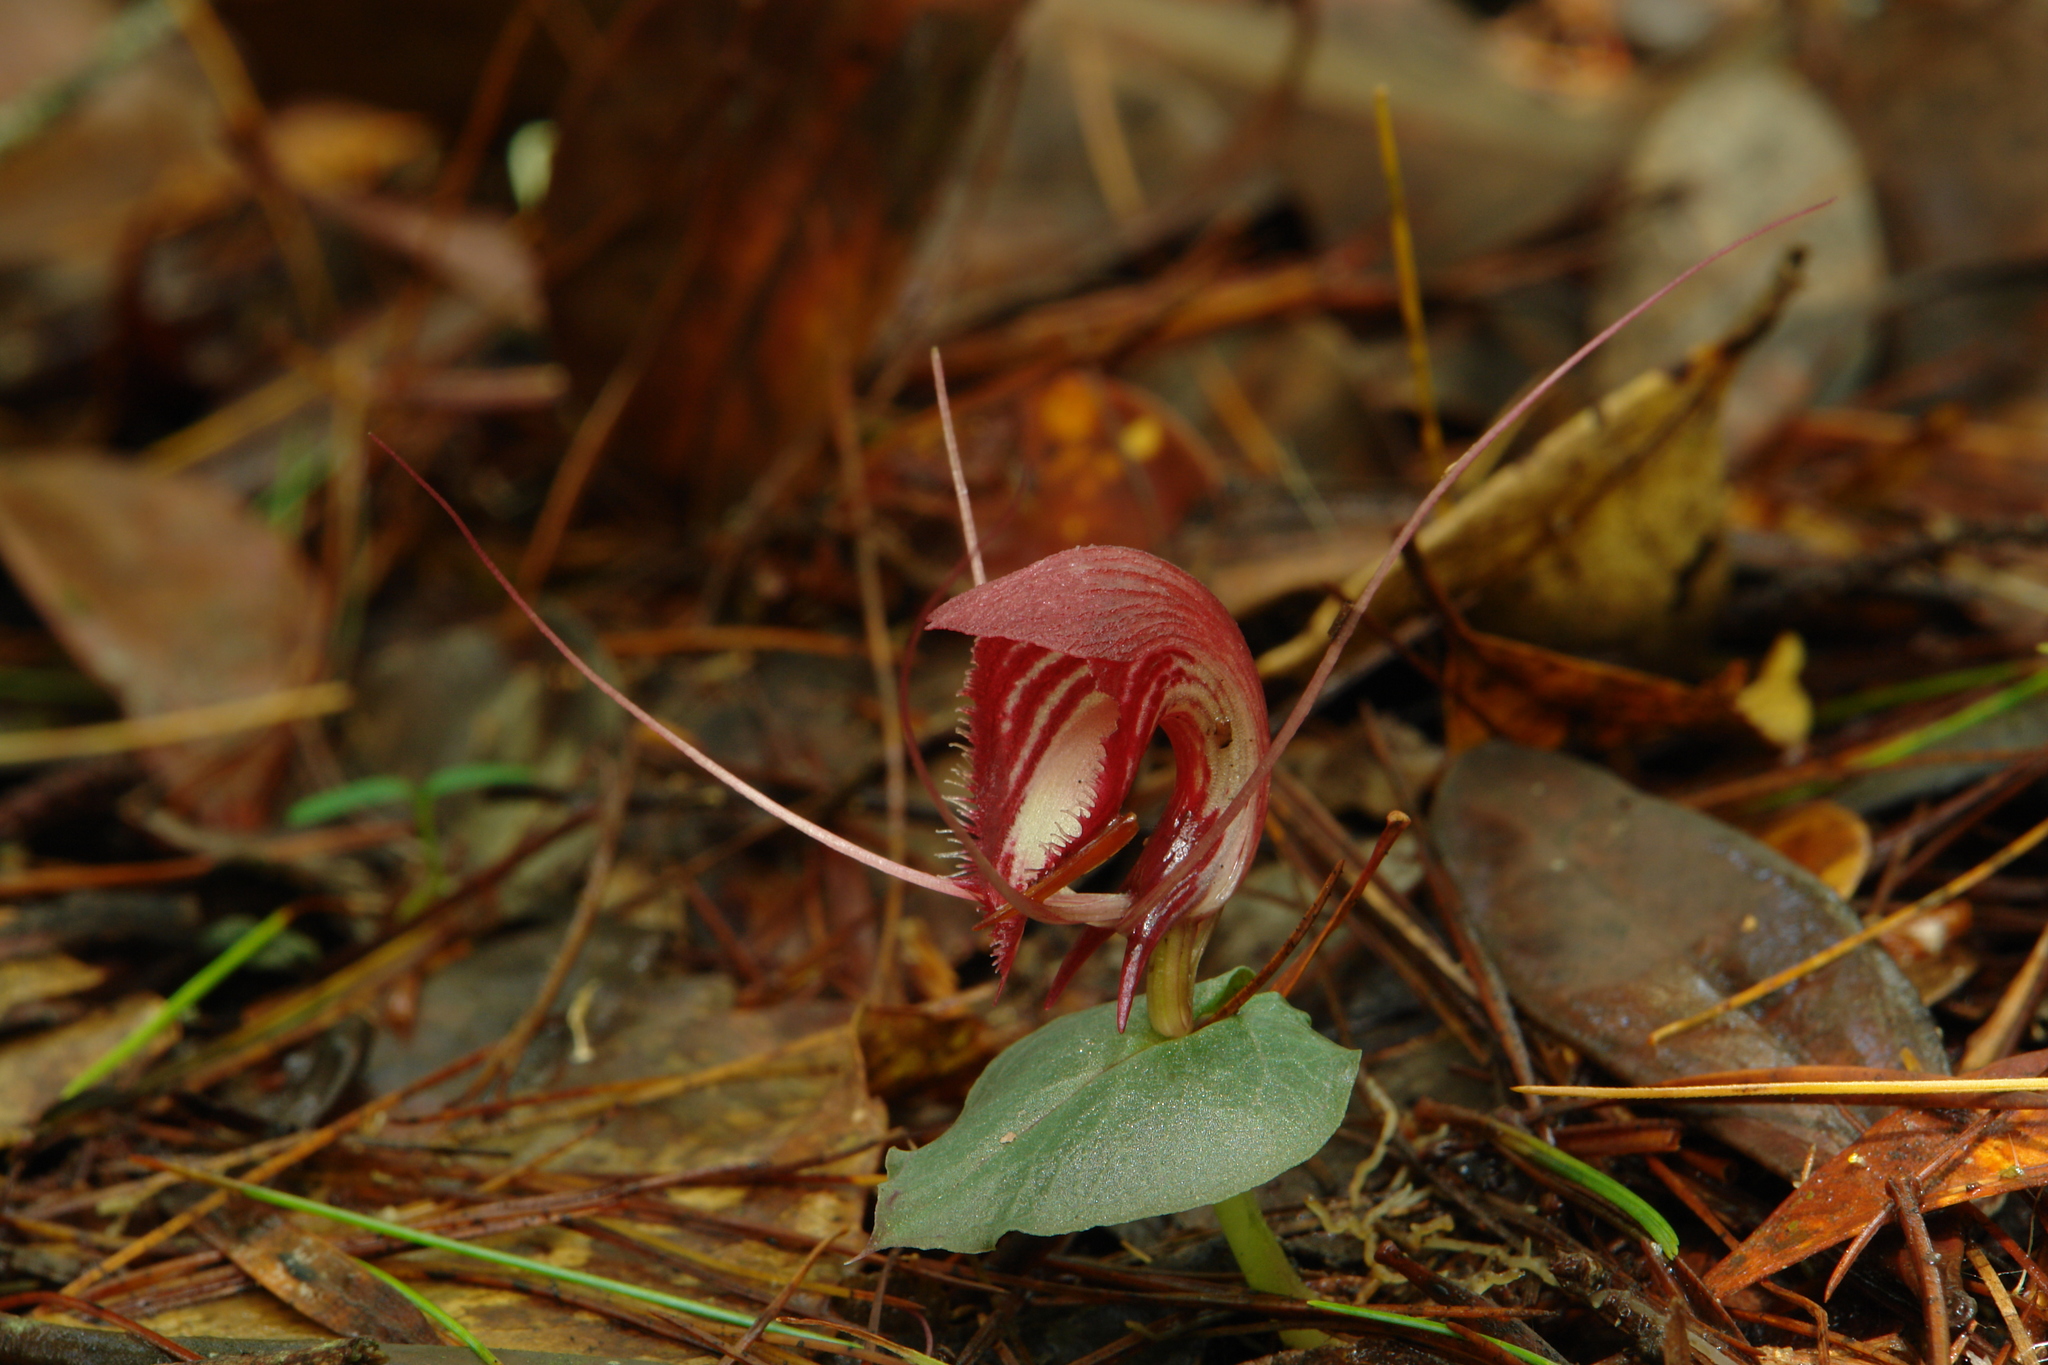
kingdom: Plantae
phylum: Tracheophyta
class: Liliopsida
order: Asparagales
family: Orchidaceae
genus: Corybas
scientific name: Corybas annamensis
